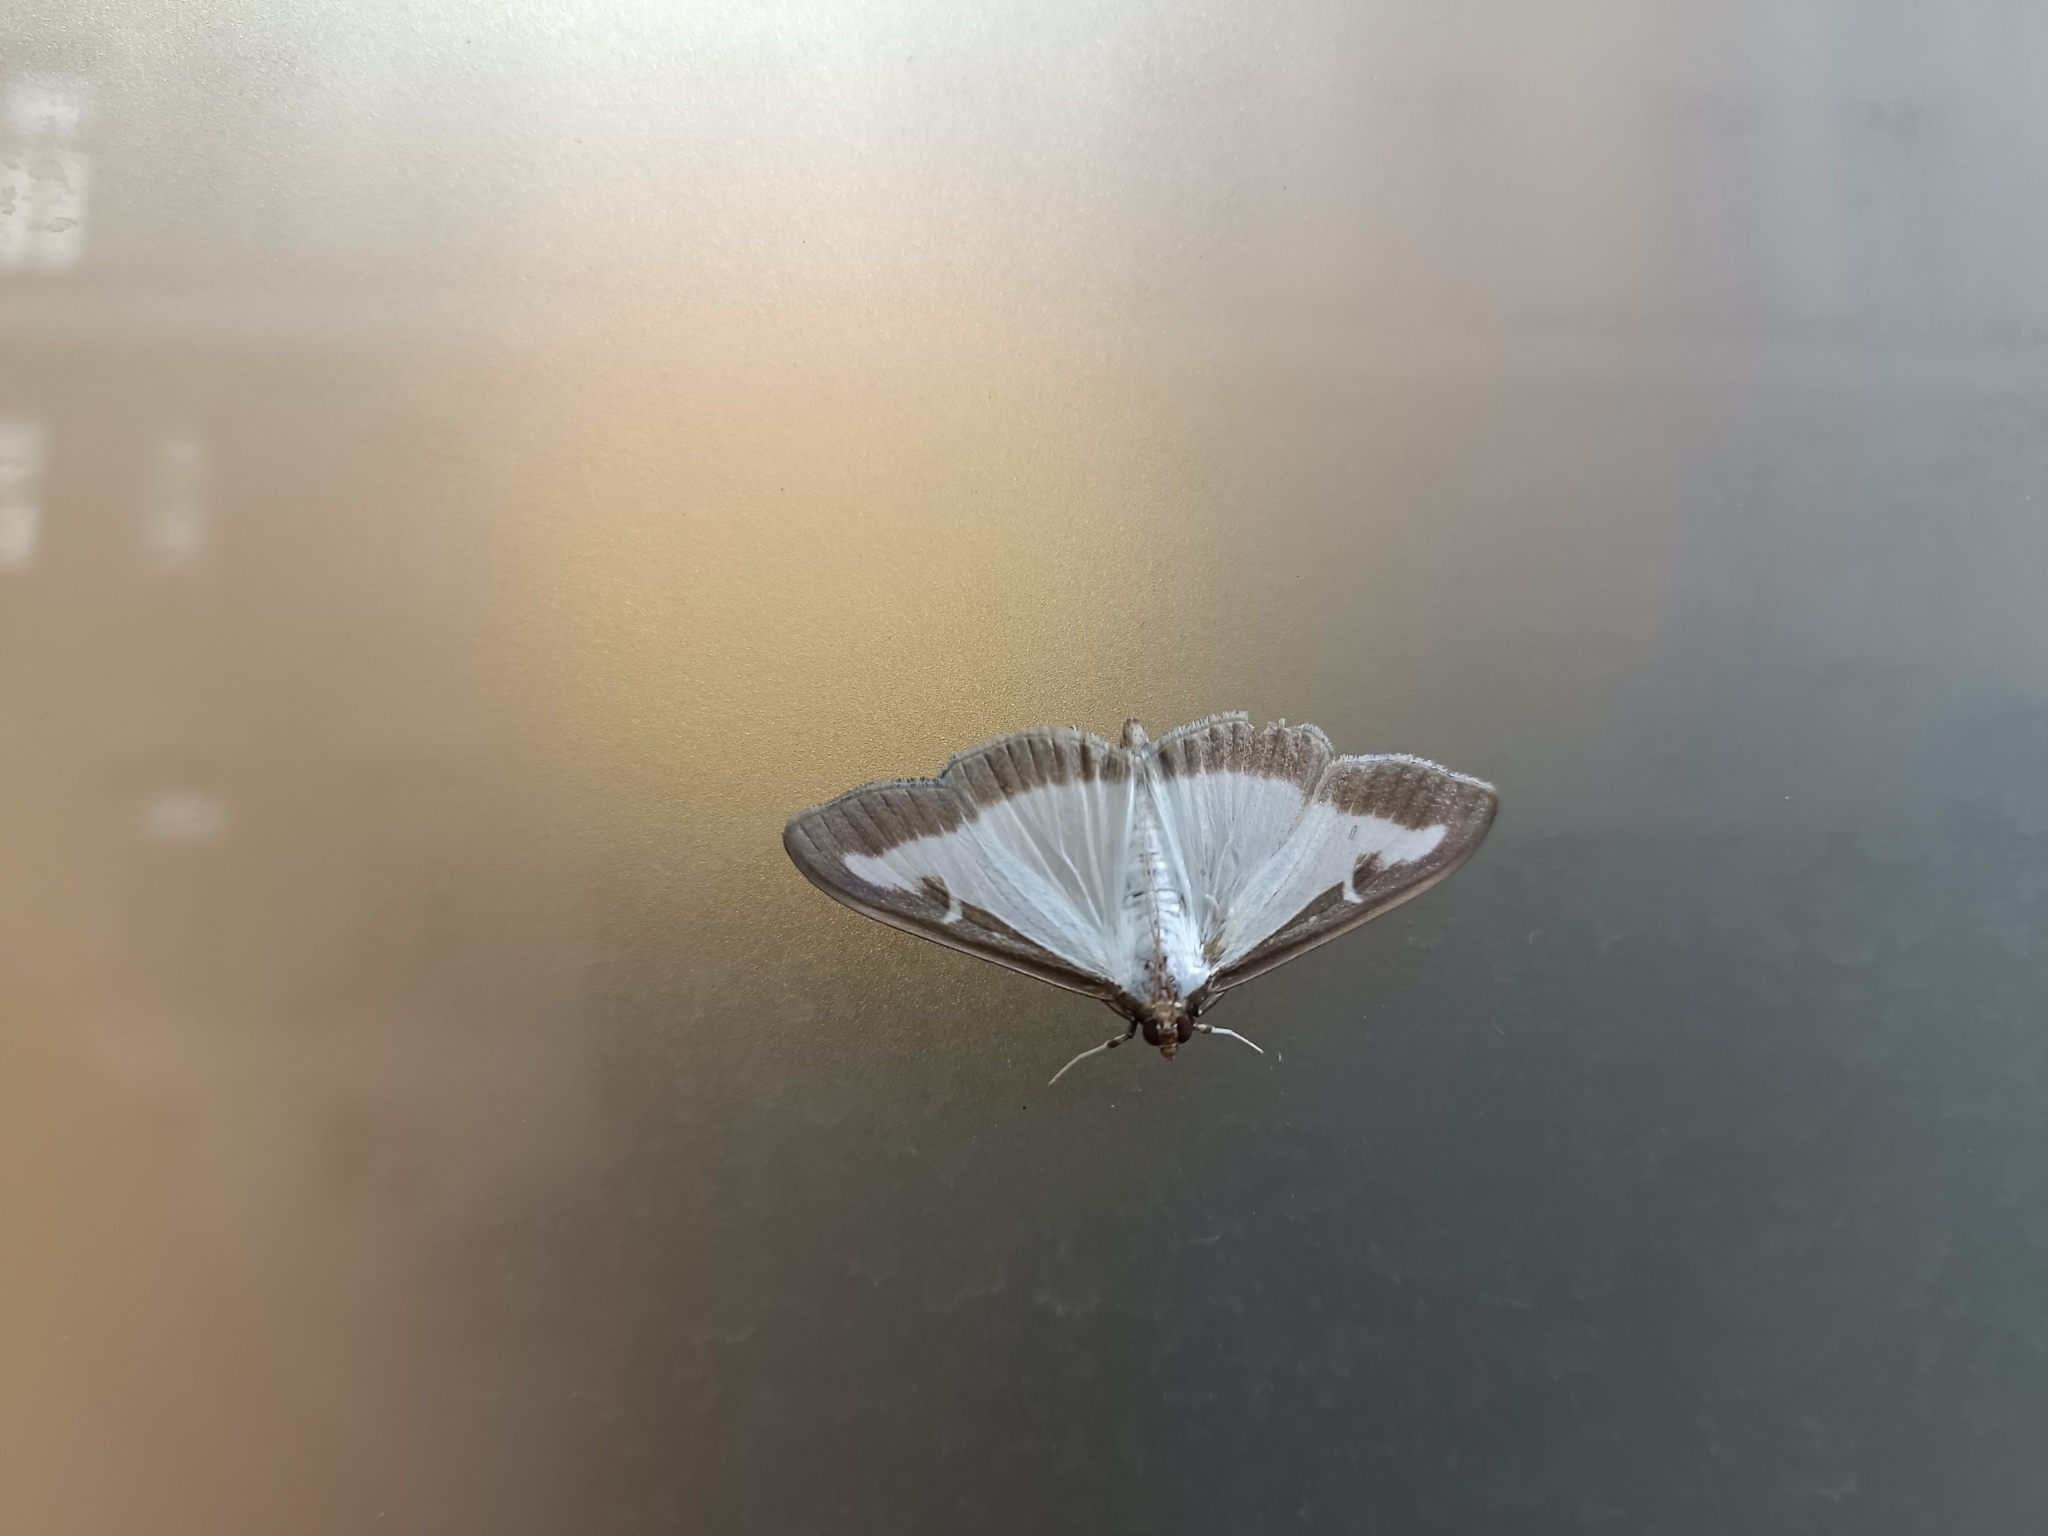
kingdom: Animalia
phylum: Arthropoda
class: Insecta
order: Lepidoptera
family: Crambidae
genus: Cydalima
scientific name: Cydalima perspectalis
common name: Box tree moth
